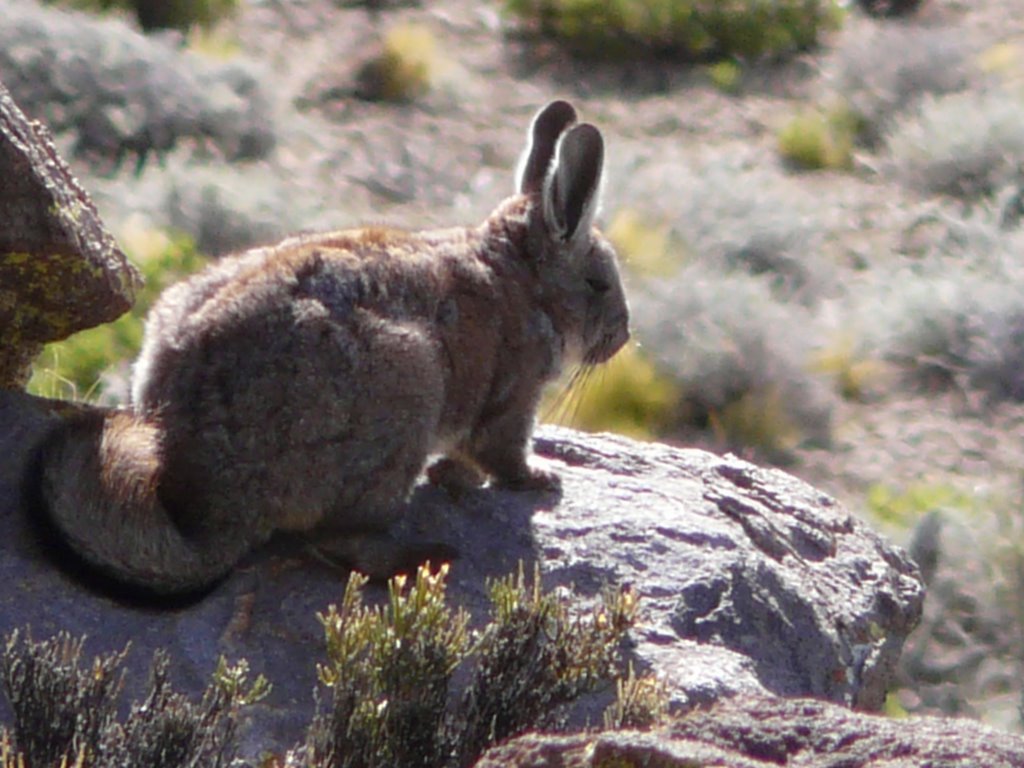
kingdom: Animalia
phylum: Chordata
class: Mammalia
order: Rodentia
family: Chinchillidae
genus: Lagidium
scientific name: Lagidium viscacia
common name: Southern viscacha
